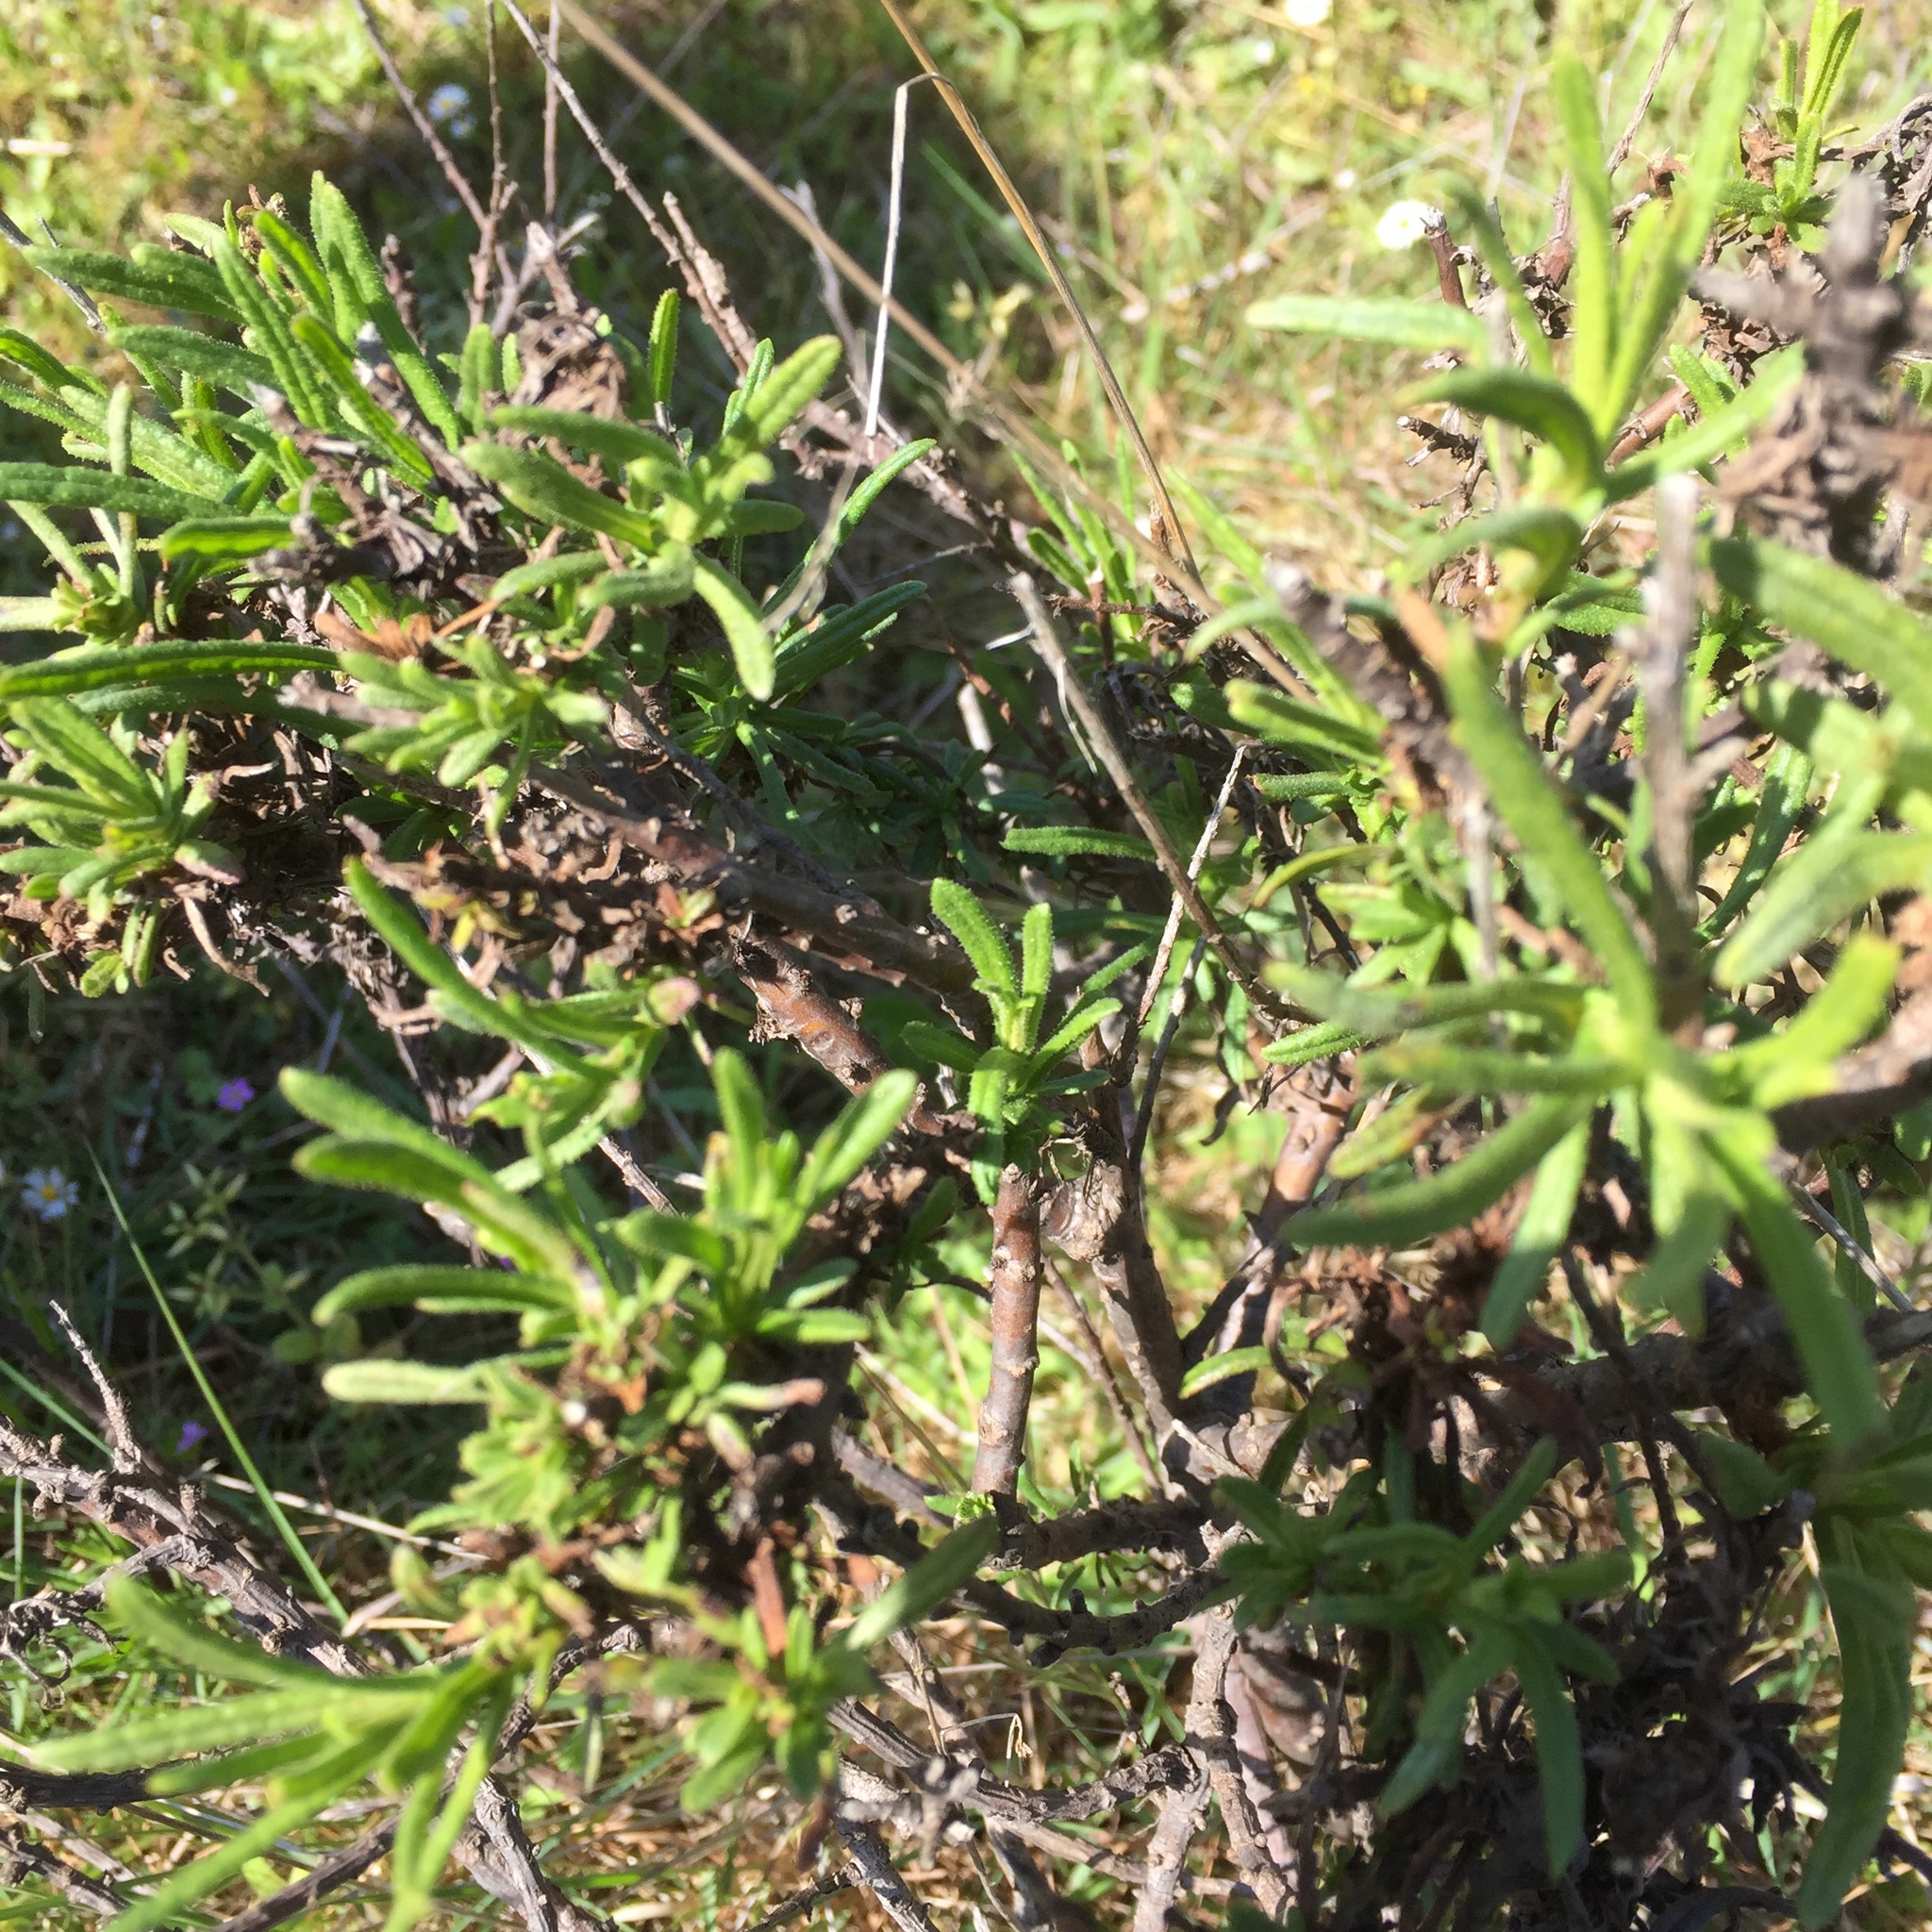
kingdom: Plantae
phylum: Tracheophyta
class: Magnoliopsida
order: Asterales
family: Asteraceae
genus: Dittrichia
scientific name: Dittrichia viscosa
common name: Woody fleabane
